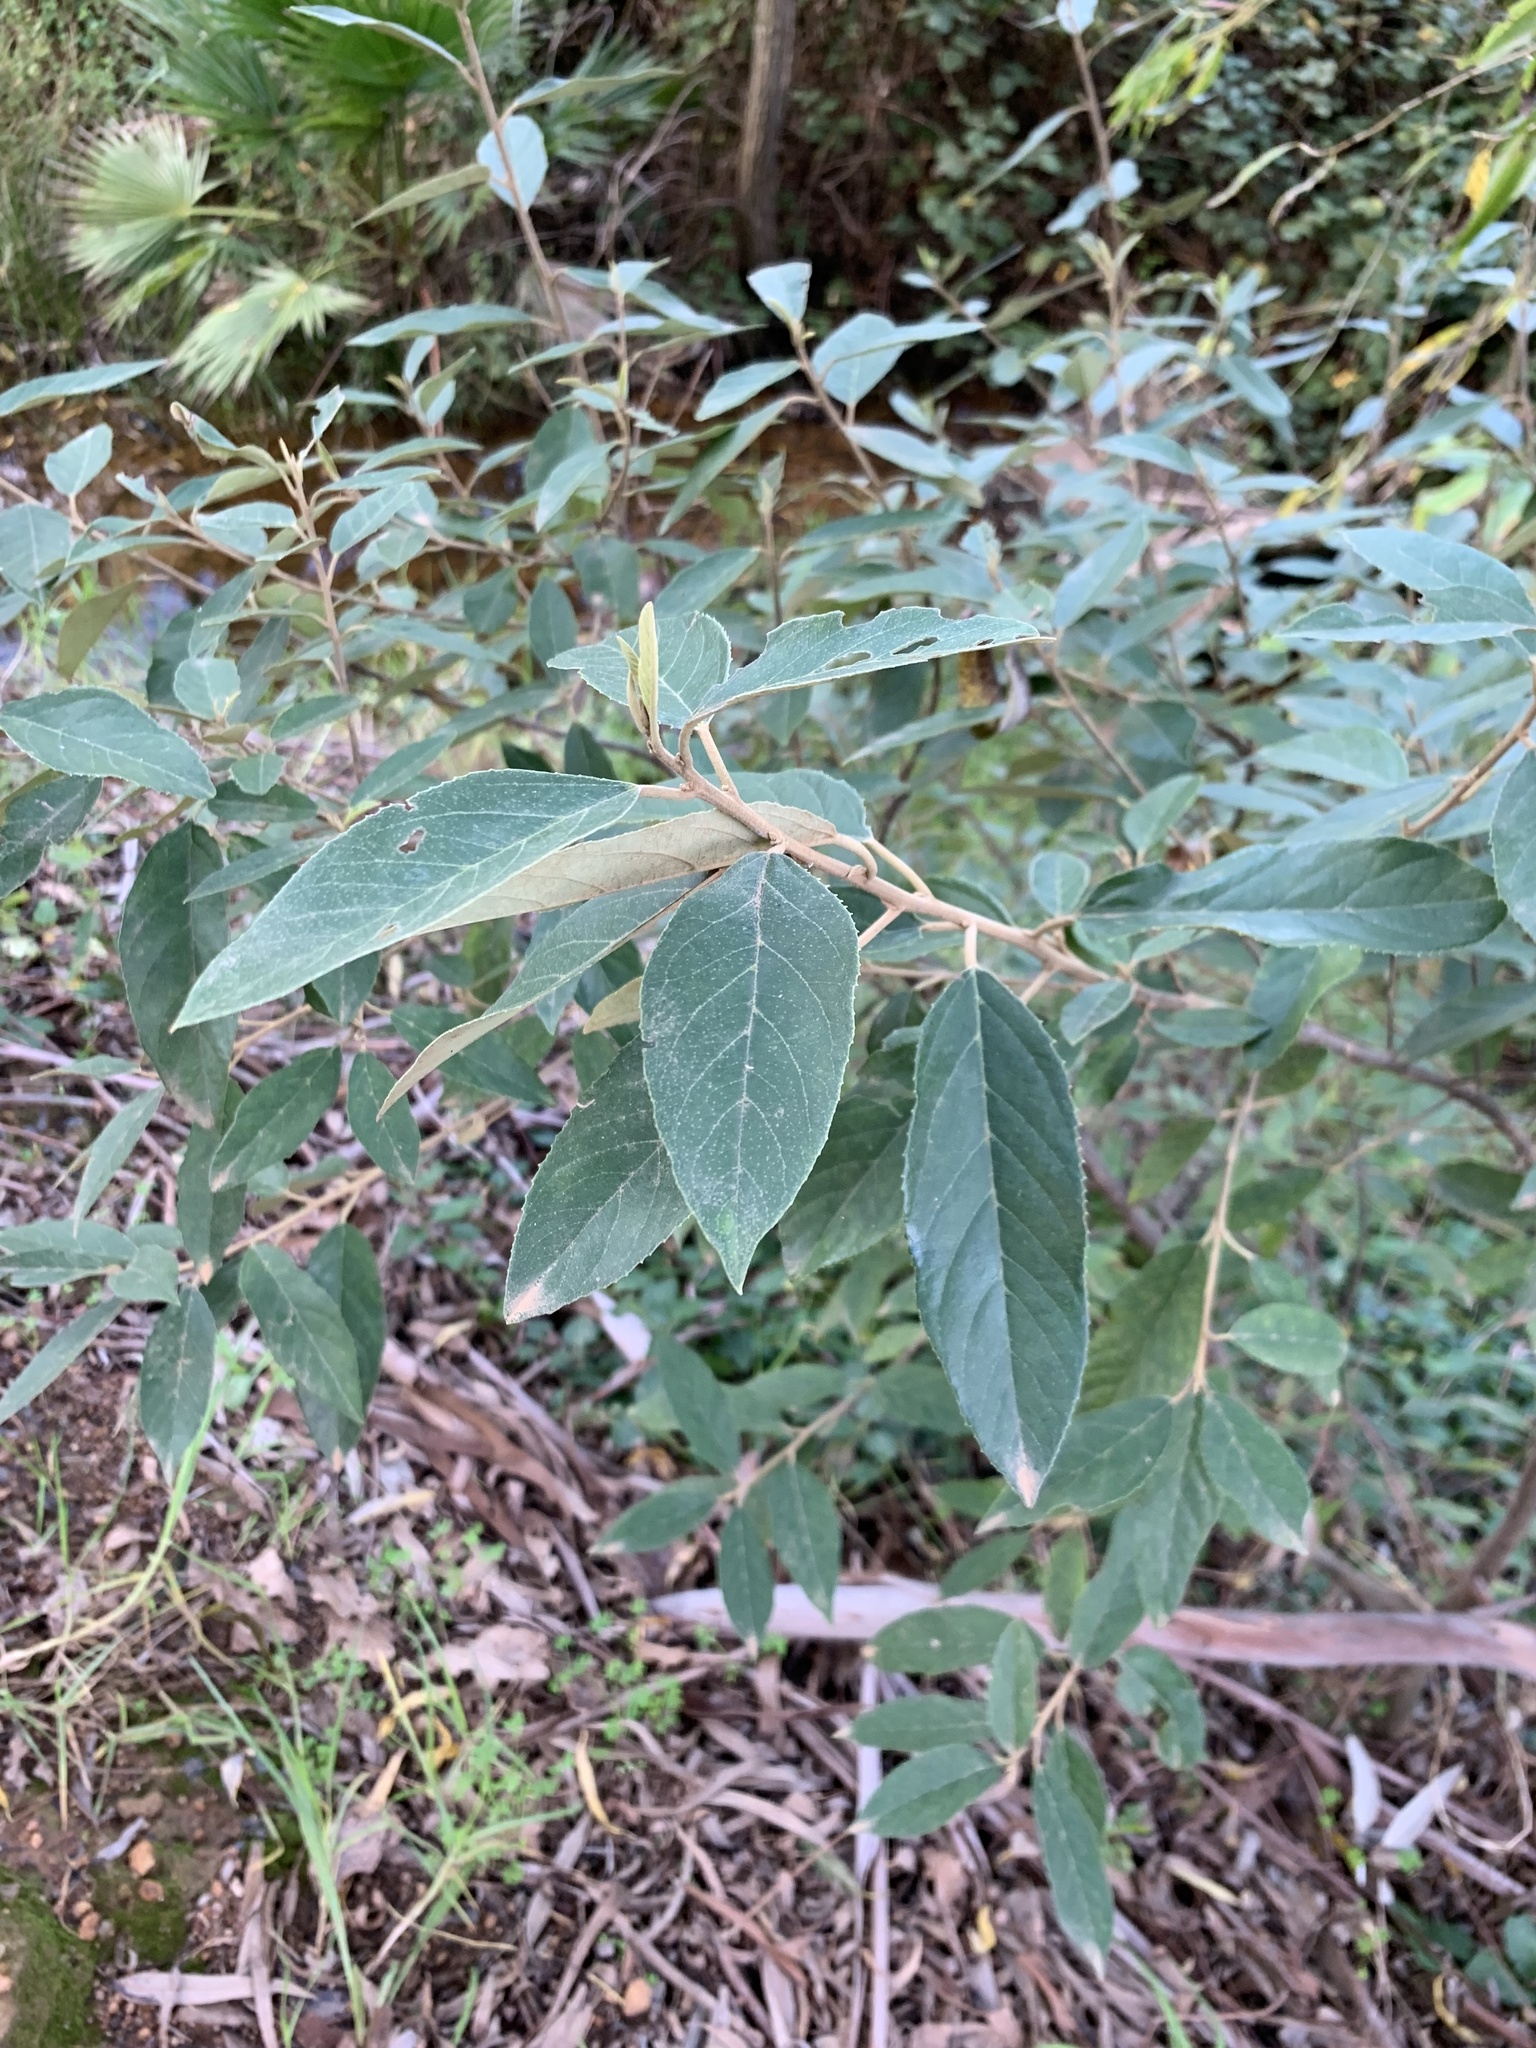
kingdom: Plantae
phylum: Tracheophyta
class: Magnoliopsida
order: Malpighiales
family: Achariaceae
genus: Kiggelaria
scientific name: Kiggelaria africana
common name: Wild peach
